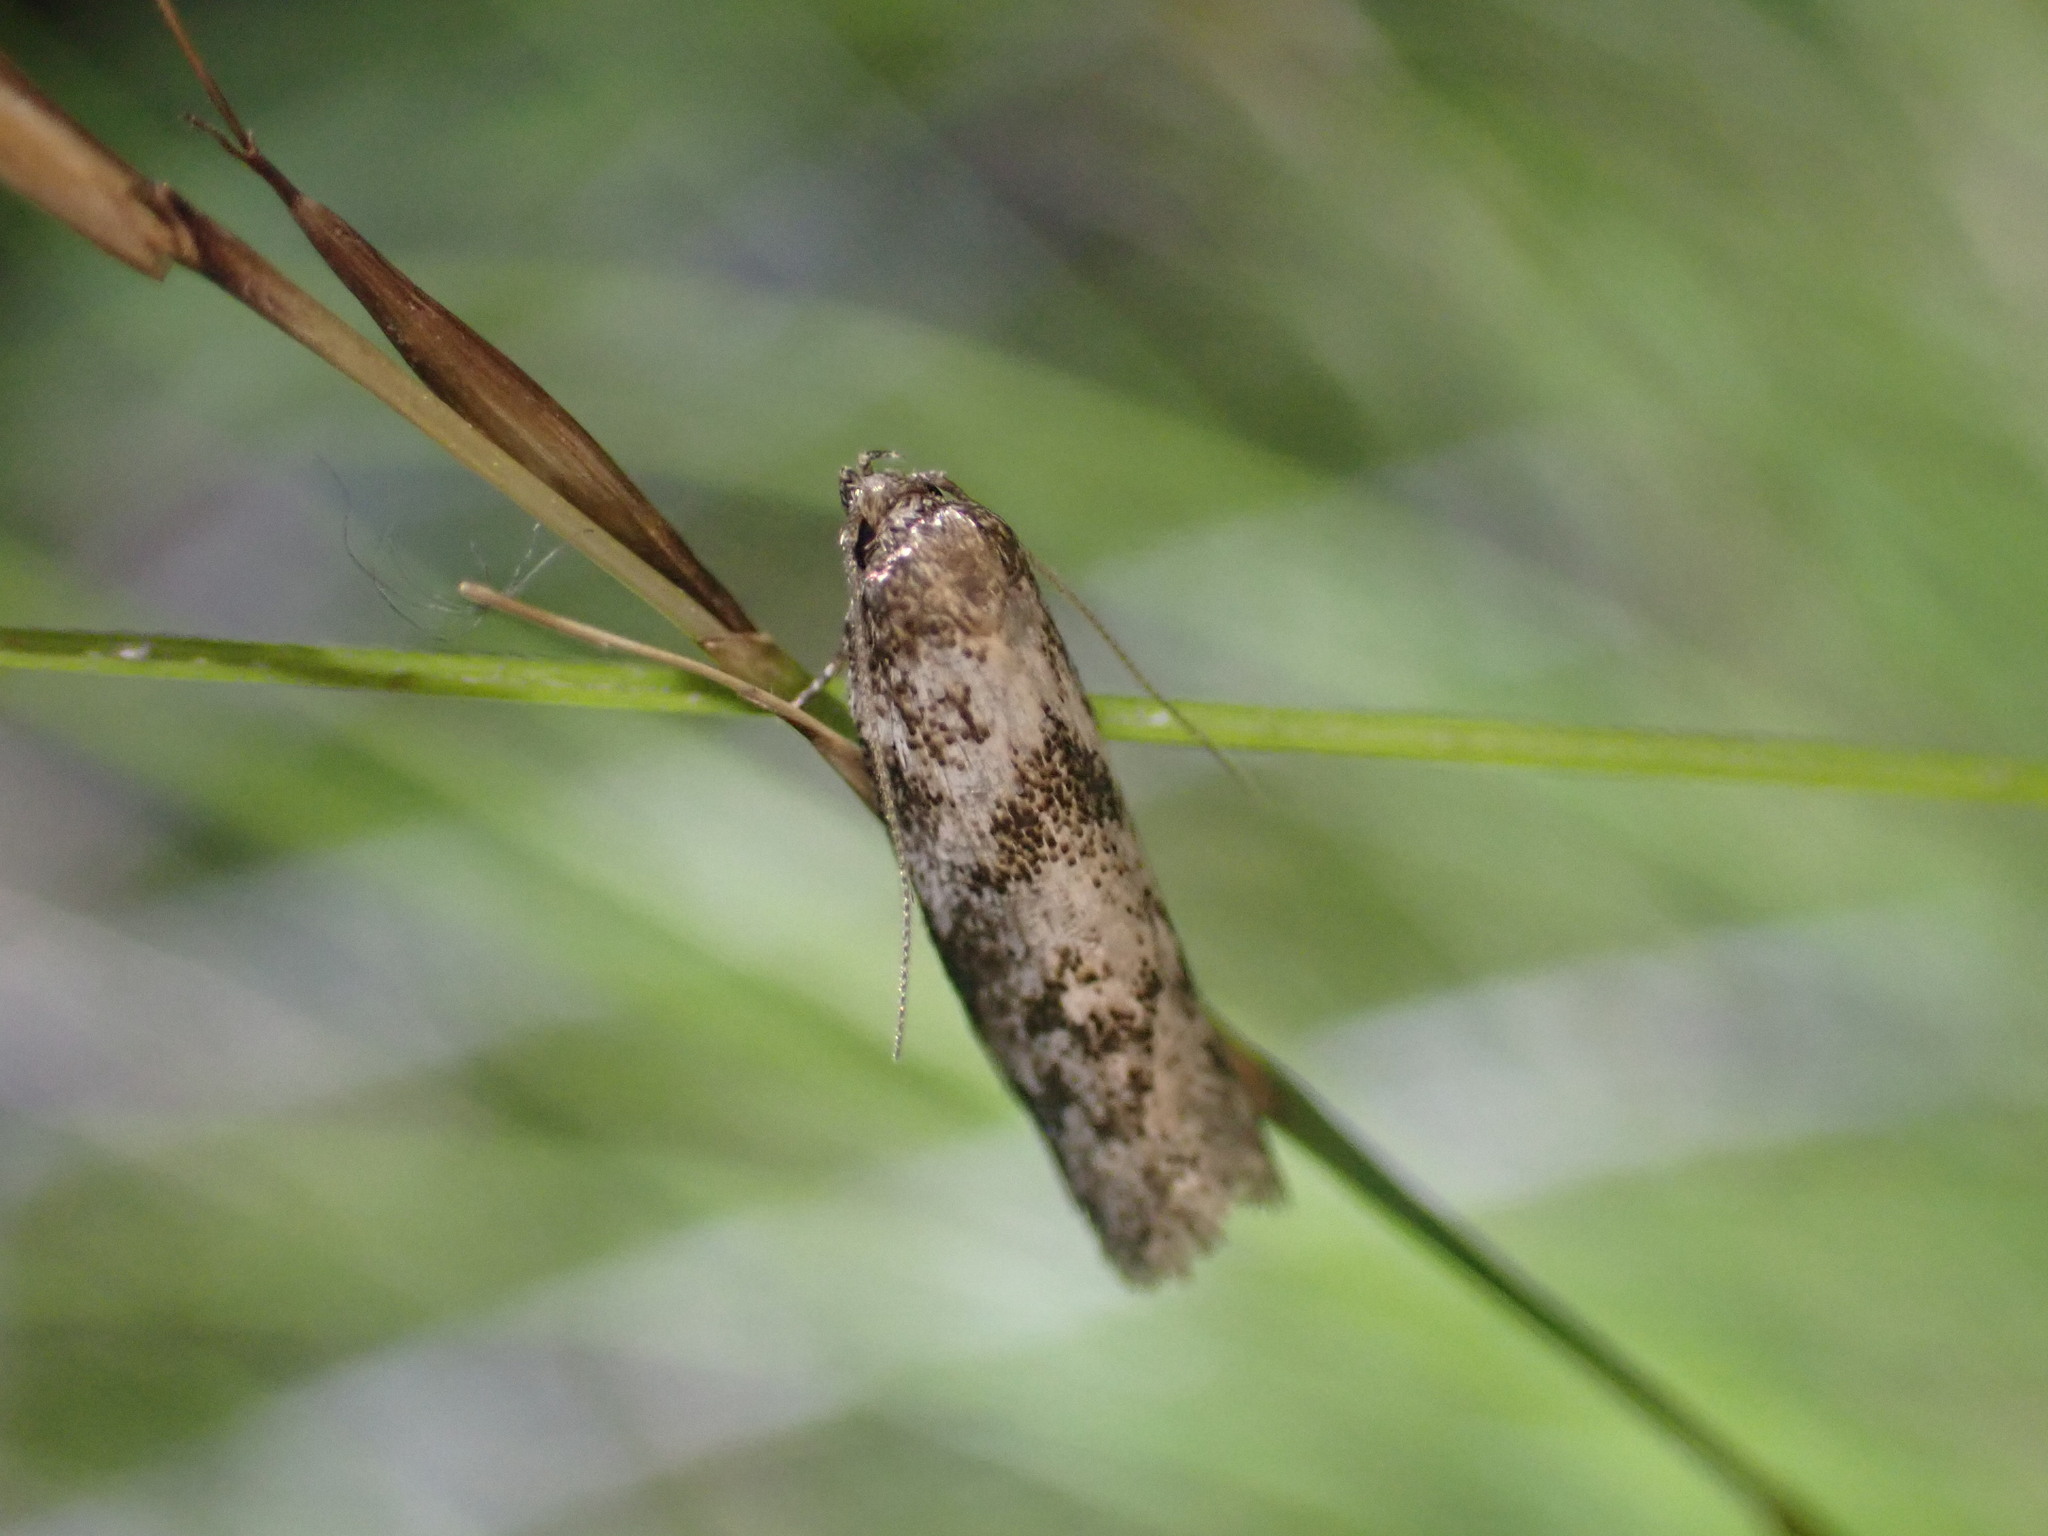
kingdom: Animalia
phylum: Arthropoda
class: Insecta
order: Lepidoptera
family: Oecophoridae
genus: Trachypepla
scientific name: Trachypepla photinella
